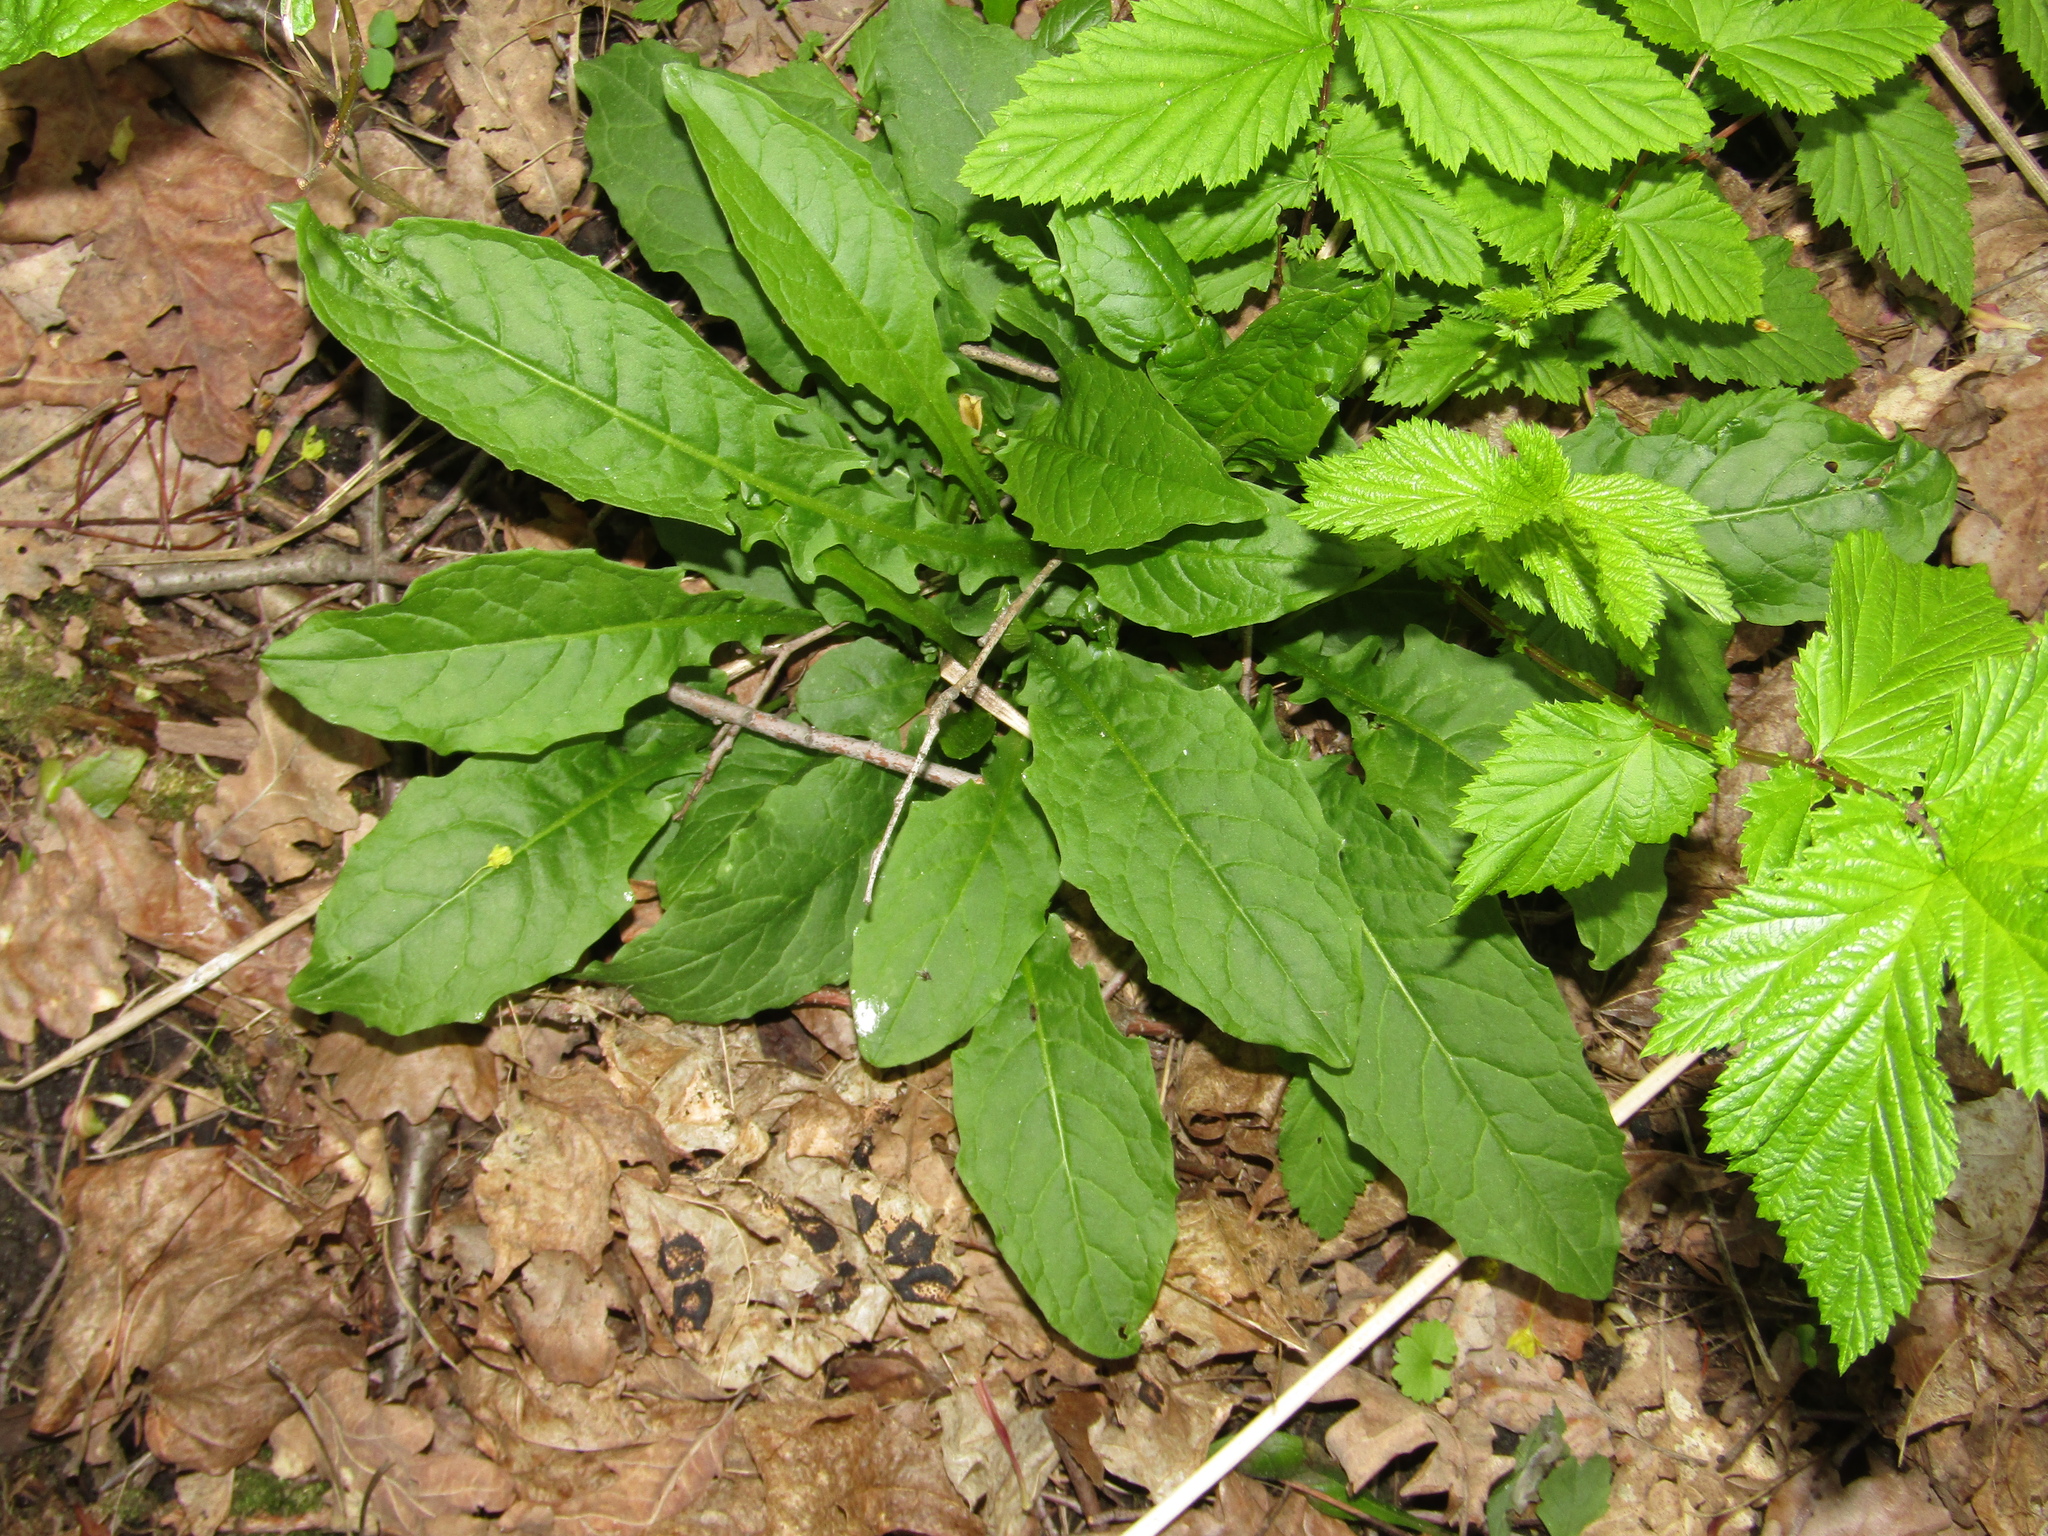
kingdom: Plantae
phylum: Tracheophyta
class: Magnoliopsida
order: Asterales
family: Asteraceae
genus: Crepis
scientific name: Crepis paludosa
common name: Marsh hawk's-beard
